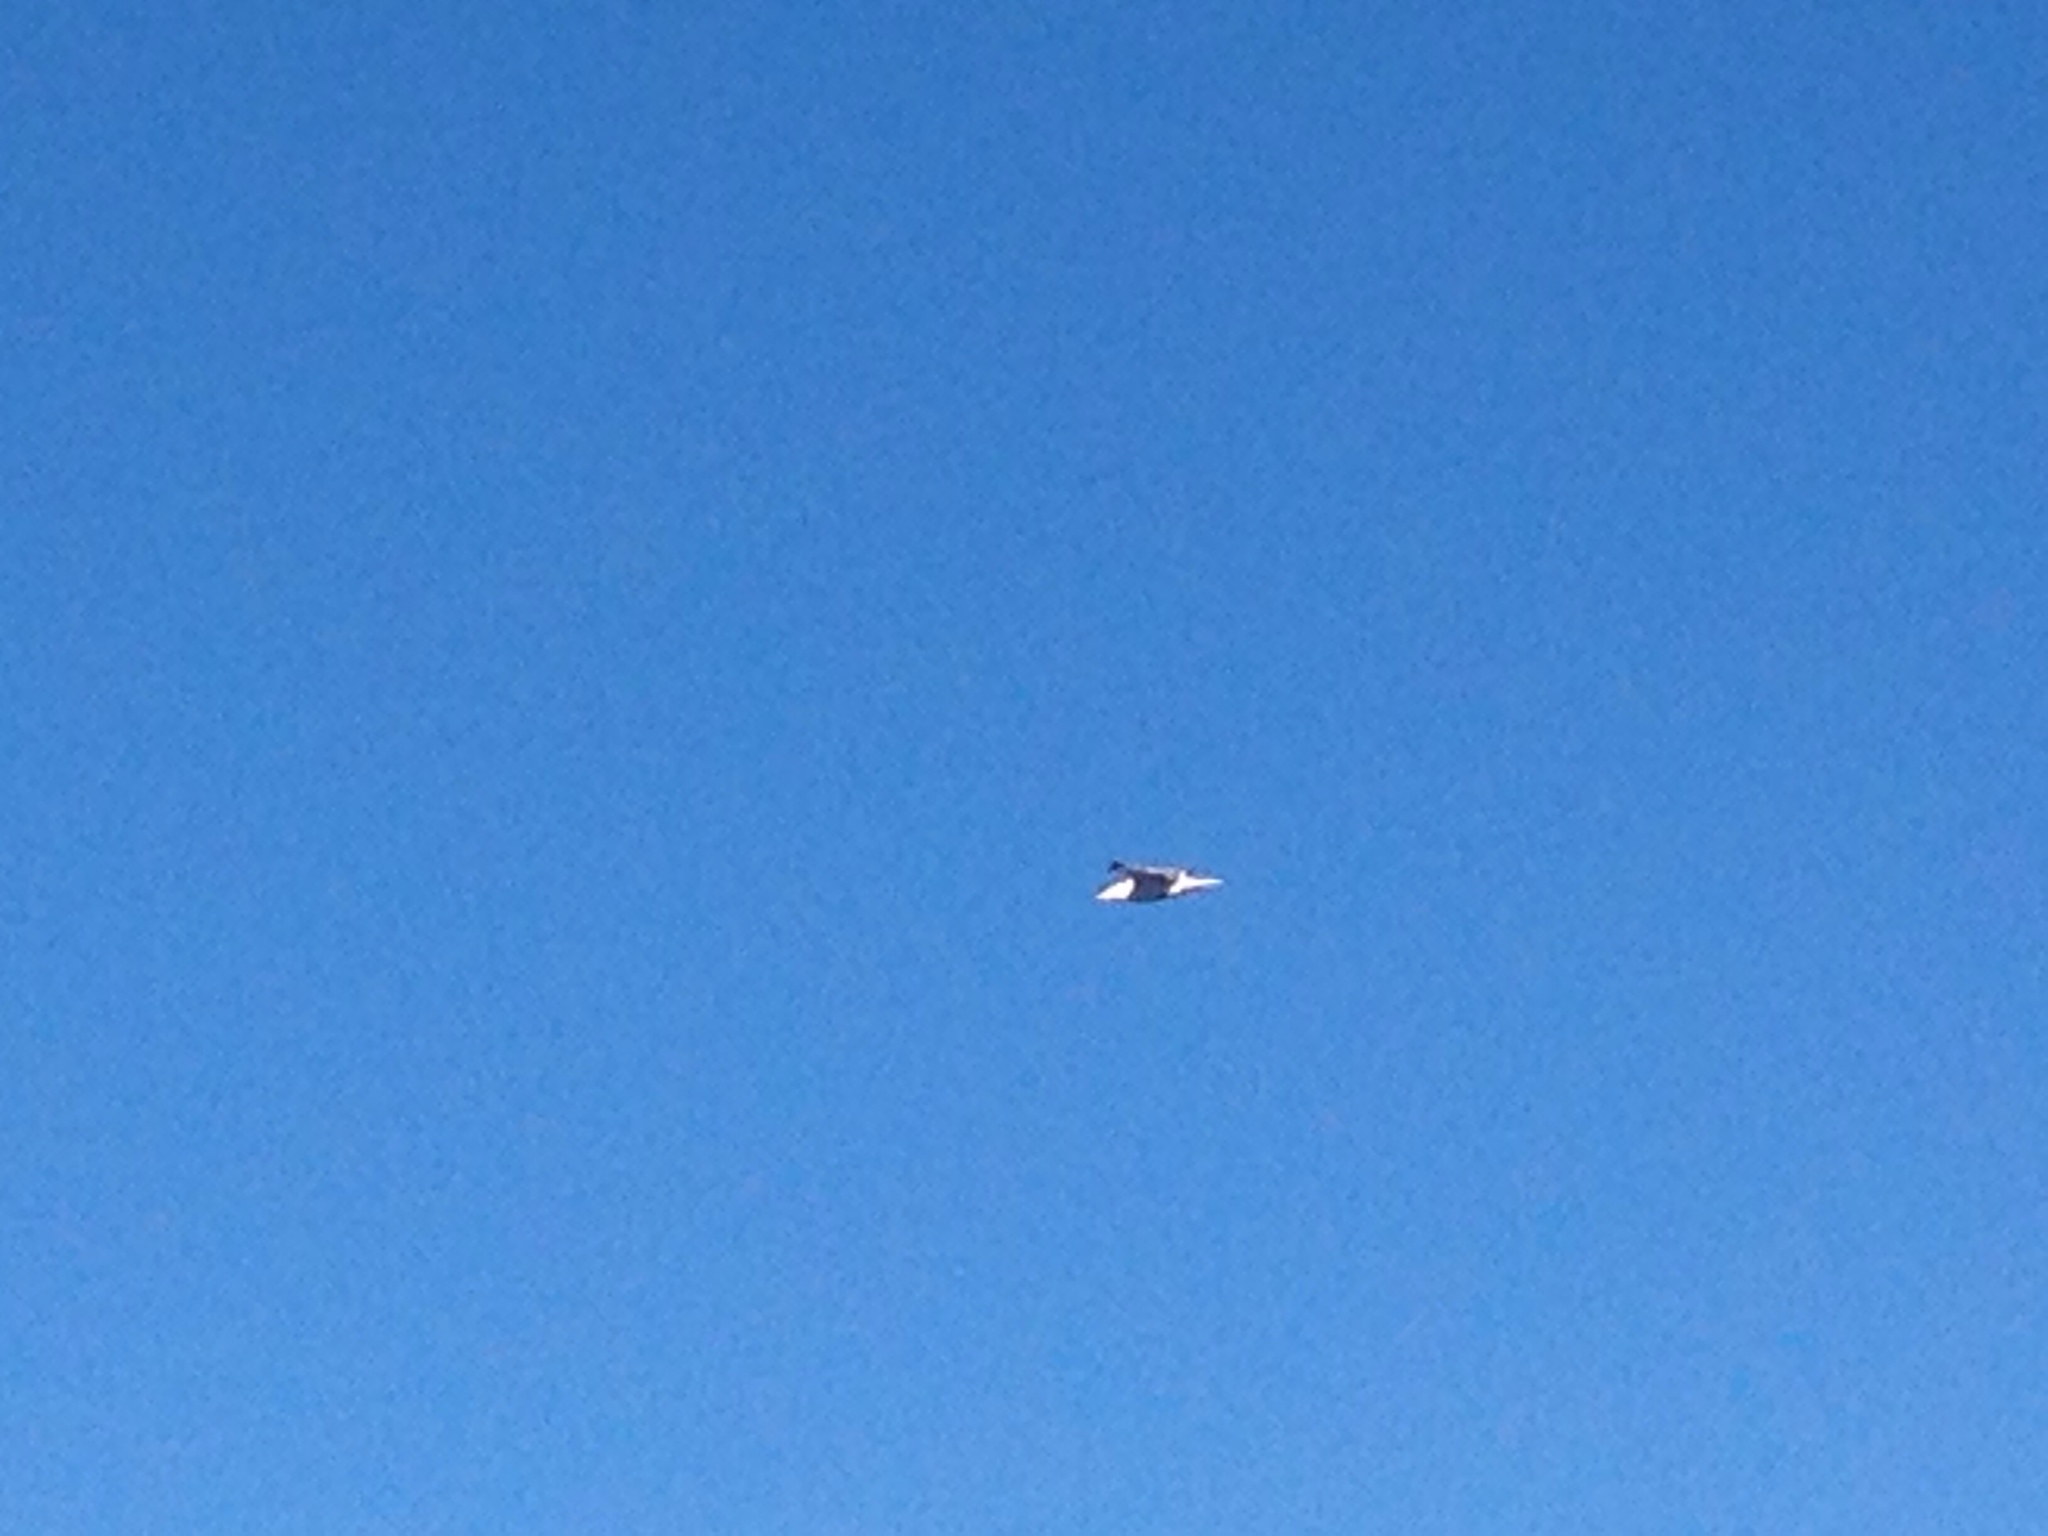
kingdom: Animalia
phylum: Chordata
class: Aves
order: Charadriiformes
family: Laridae
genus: Larus
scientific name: Larus michahellis
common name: Yellow-legged gull
